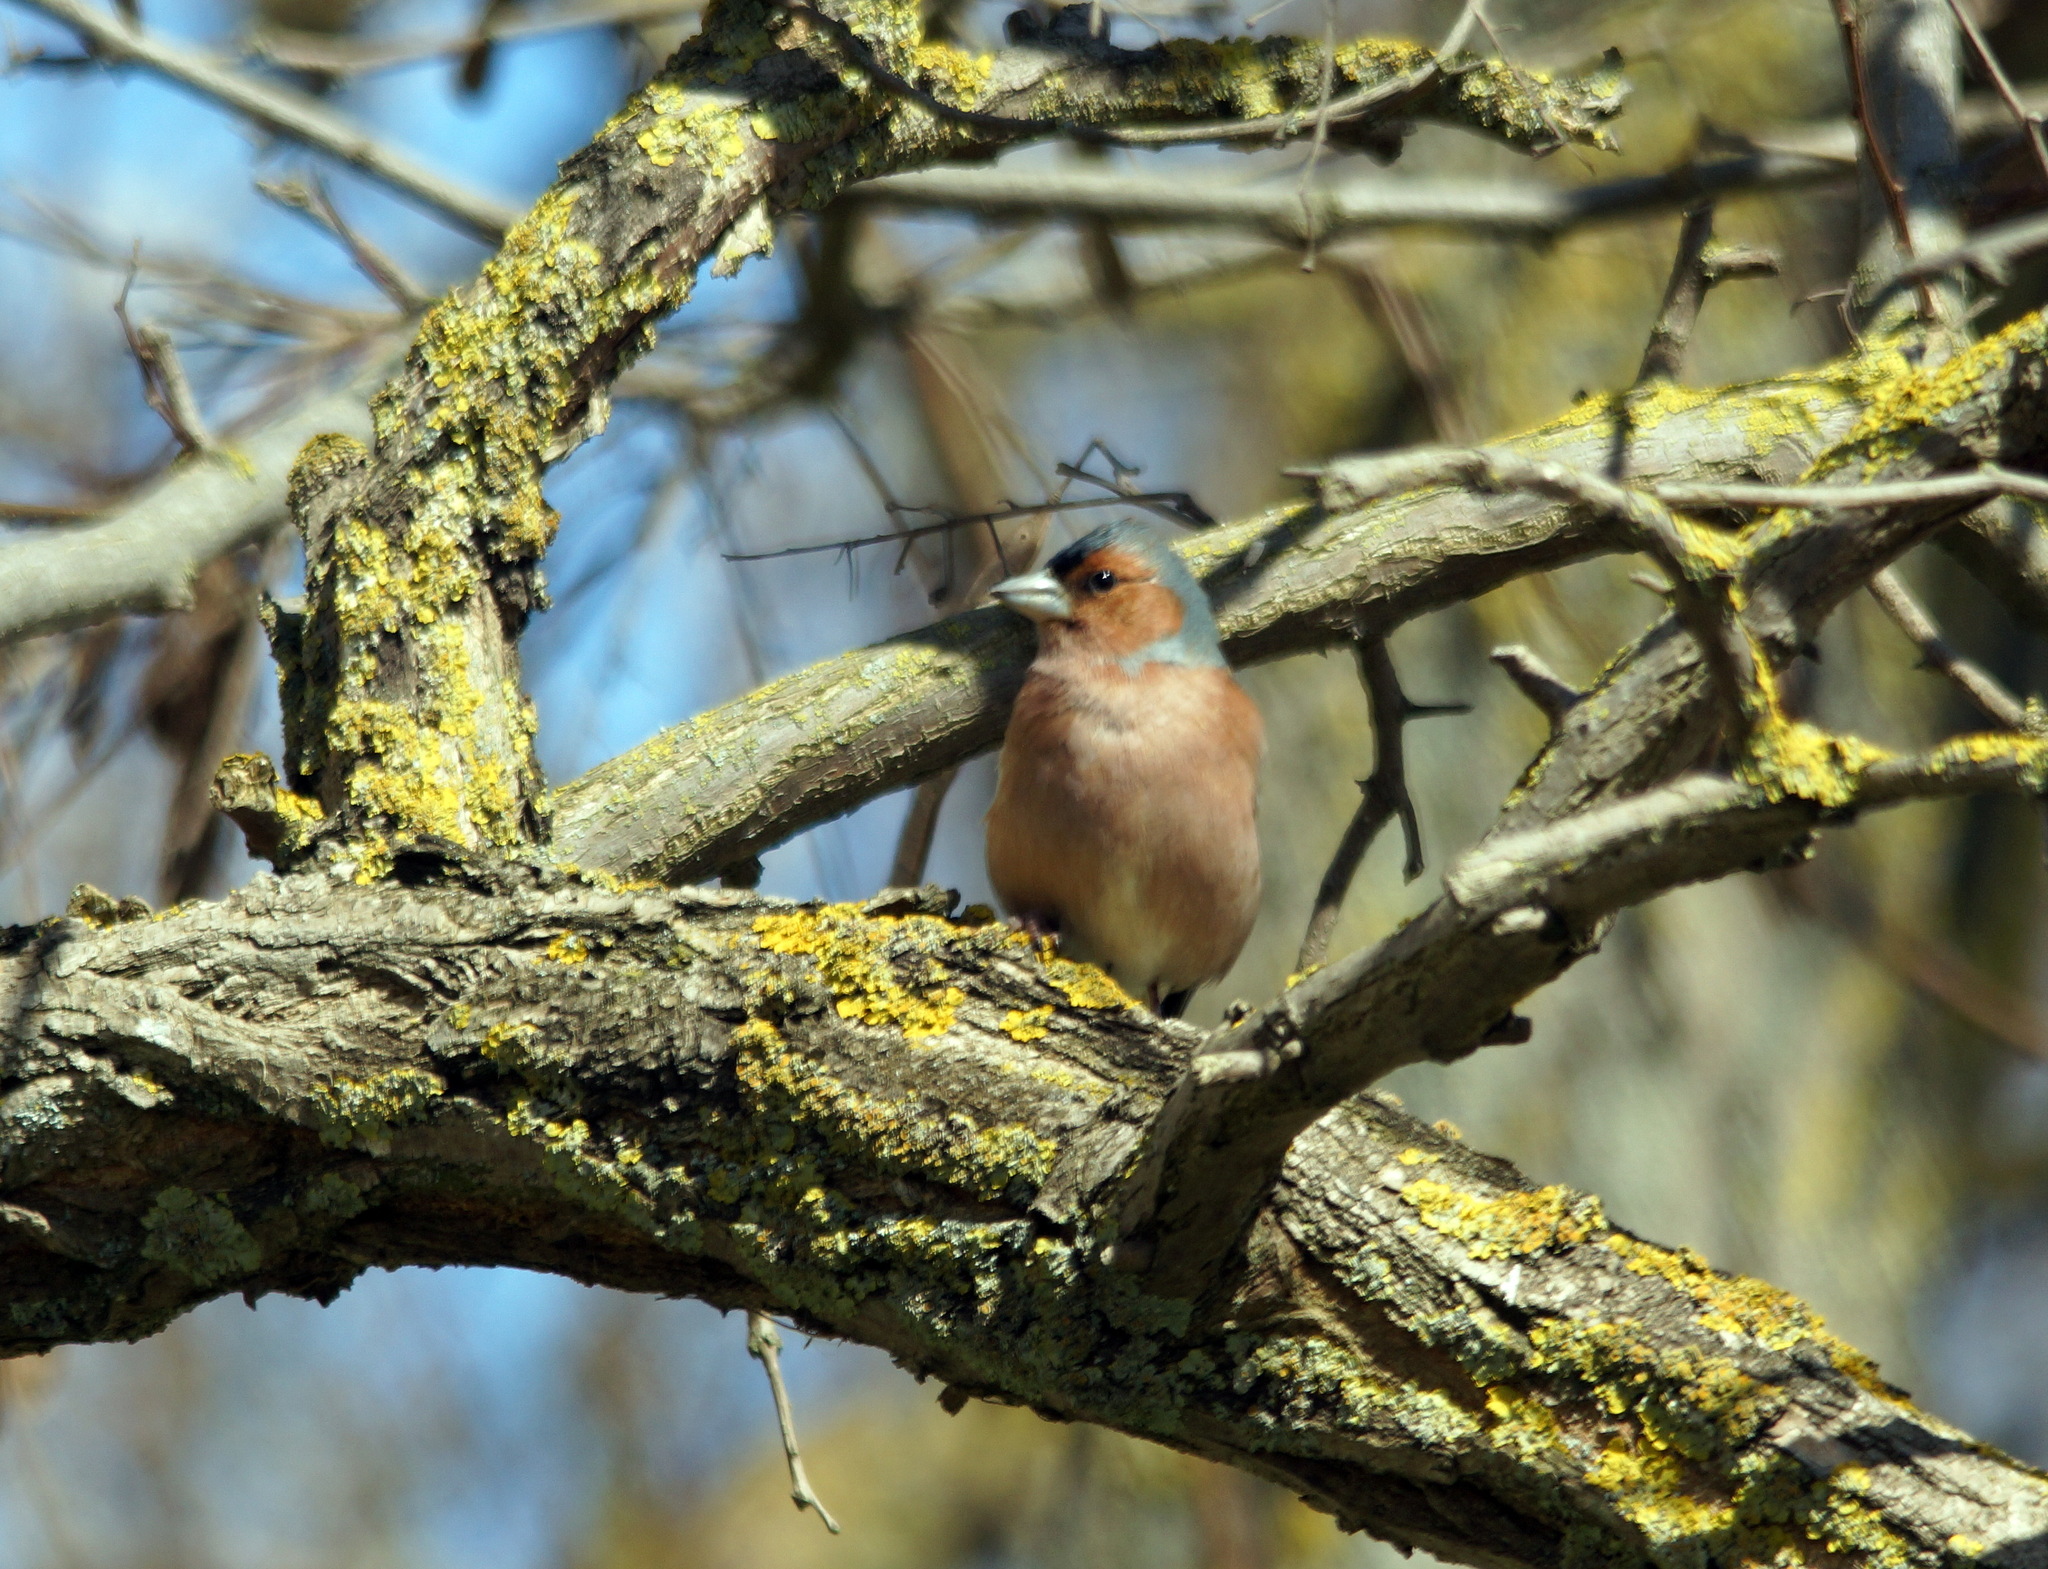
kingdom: Animalia
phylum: Chordata
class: Aves
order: Passeriformes
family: Fringillidae
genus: Fringilla
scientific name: Fringilla coelebs
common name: Common chaffinch
